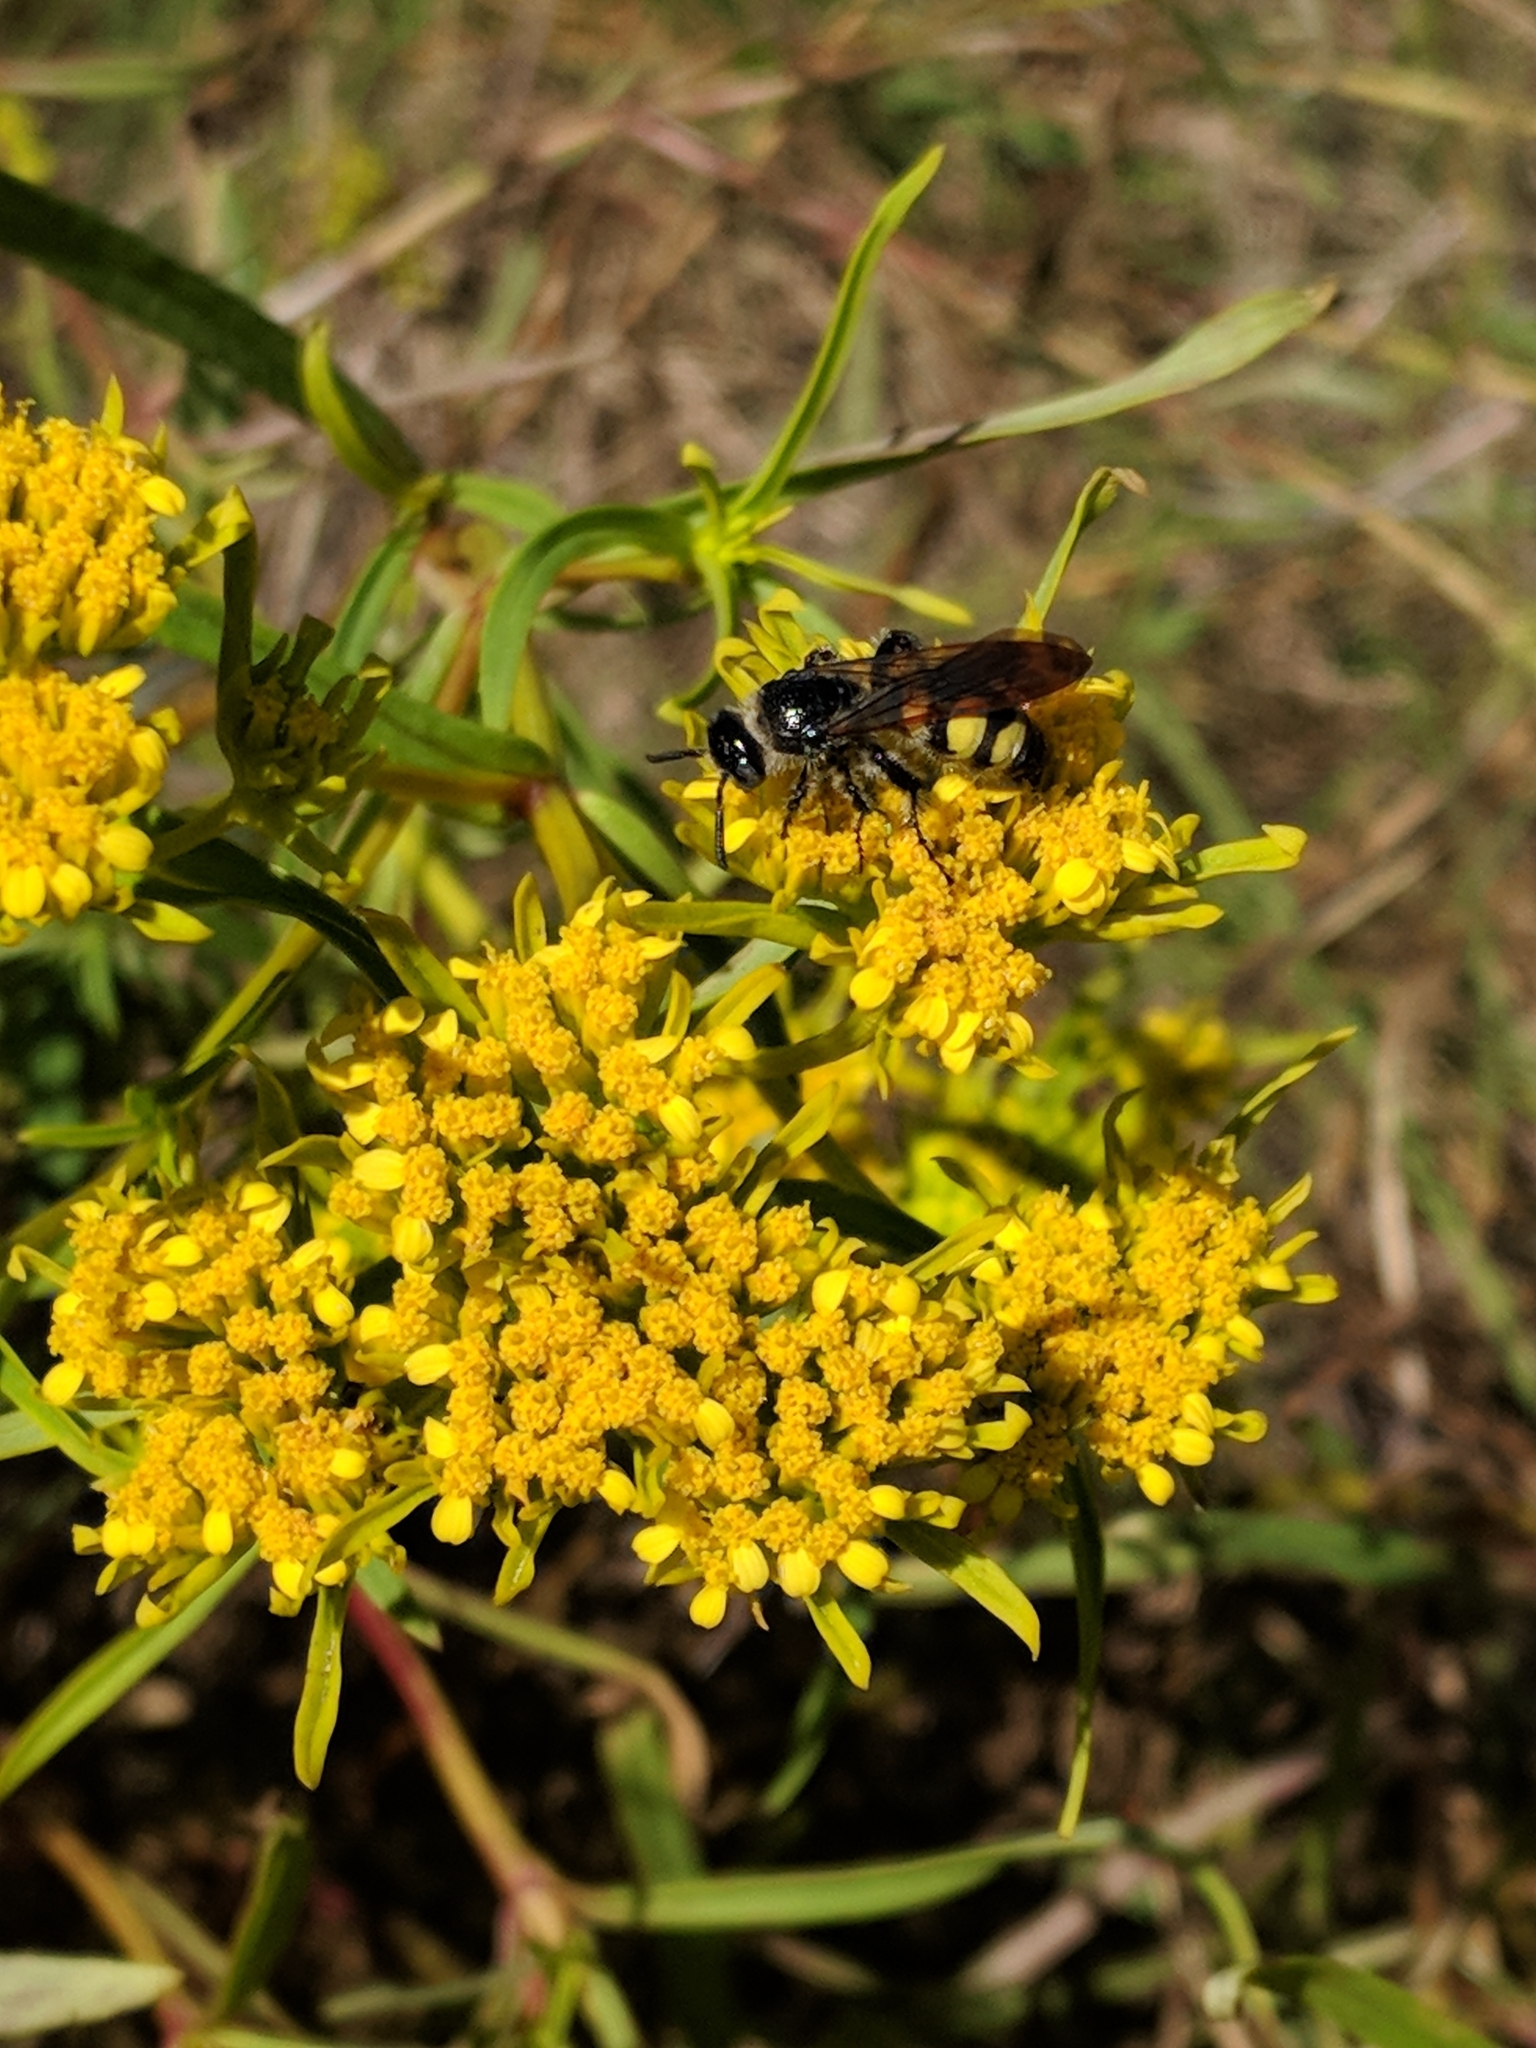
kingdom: Animalia
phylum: Arthropoda
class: Insecta
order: Hymenoptera
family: Scoliidae
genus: Dielis
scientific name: Dielis
